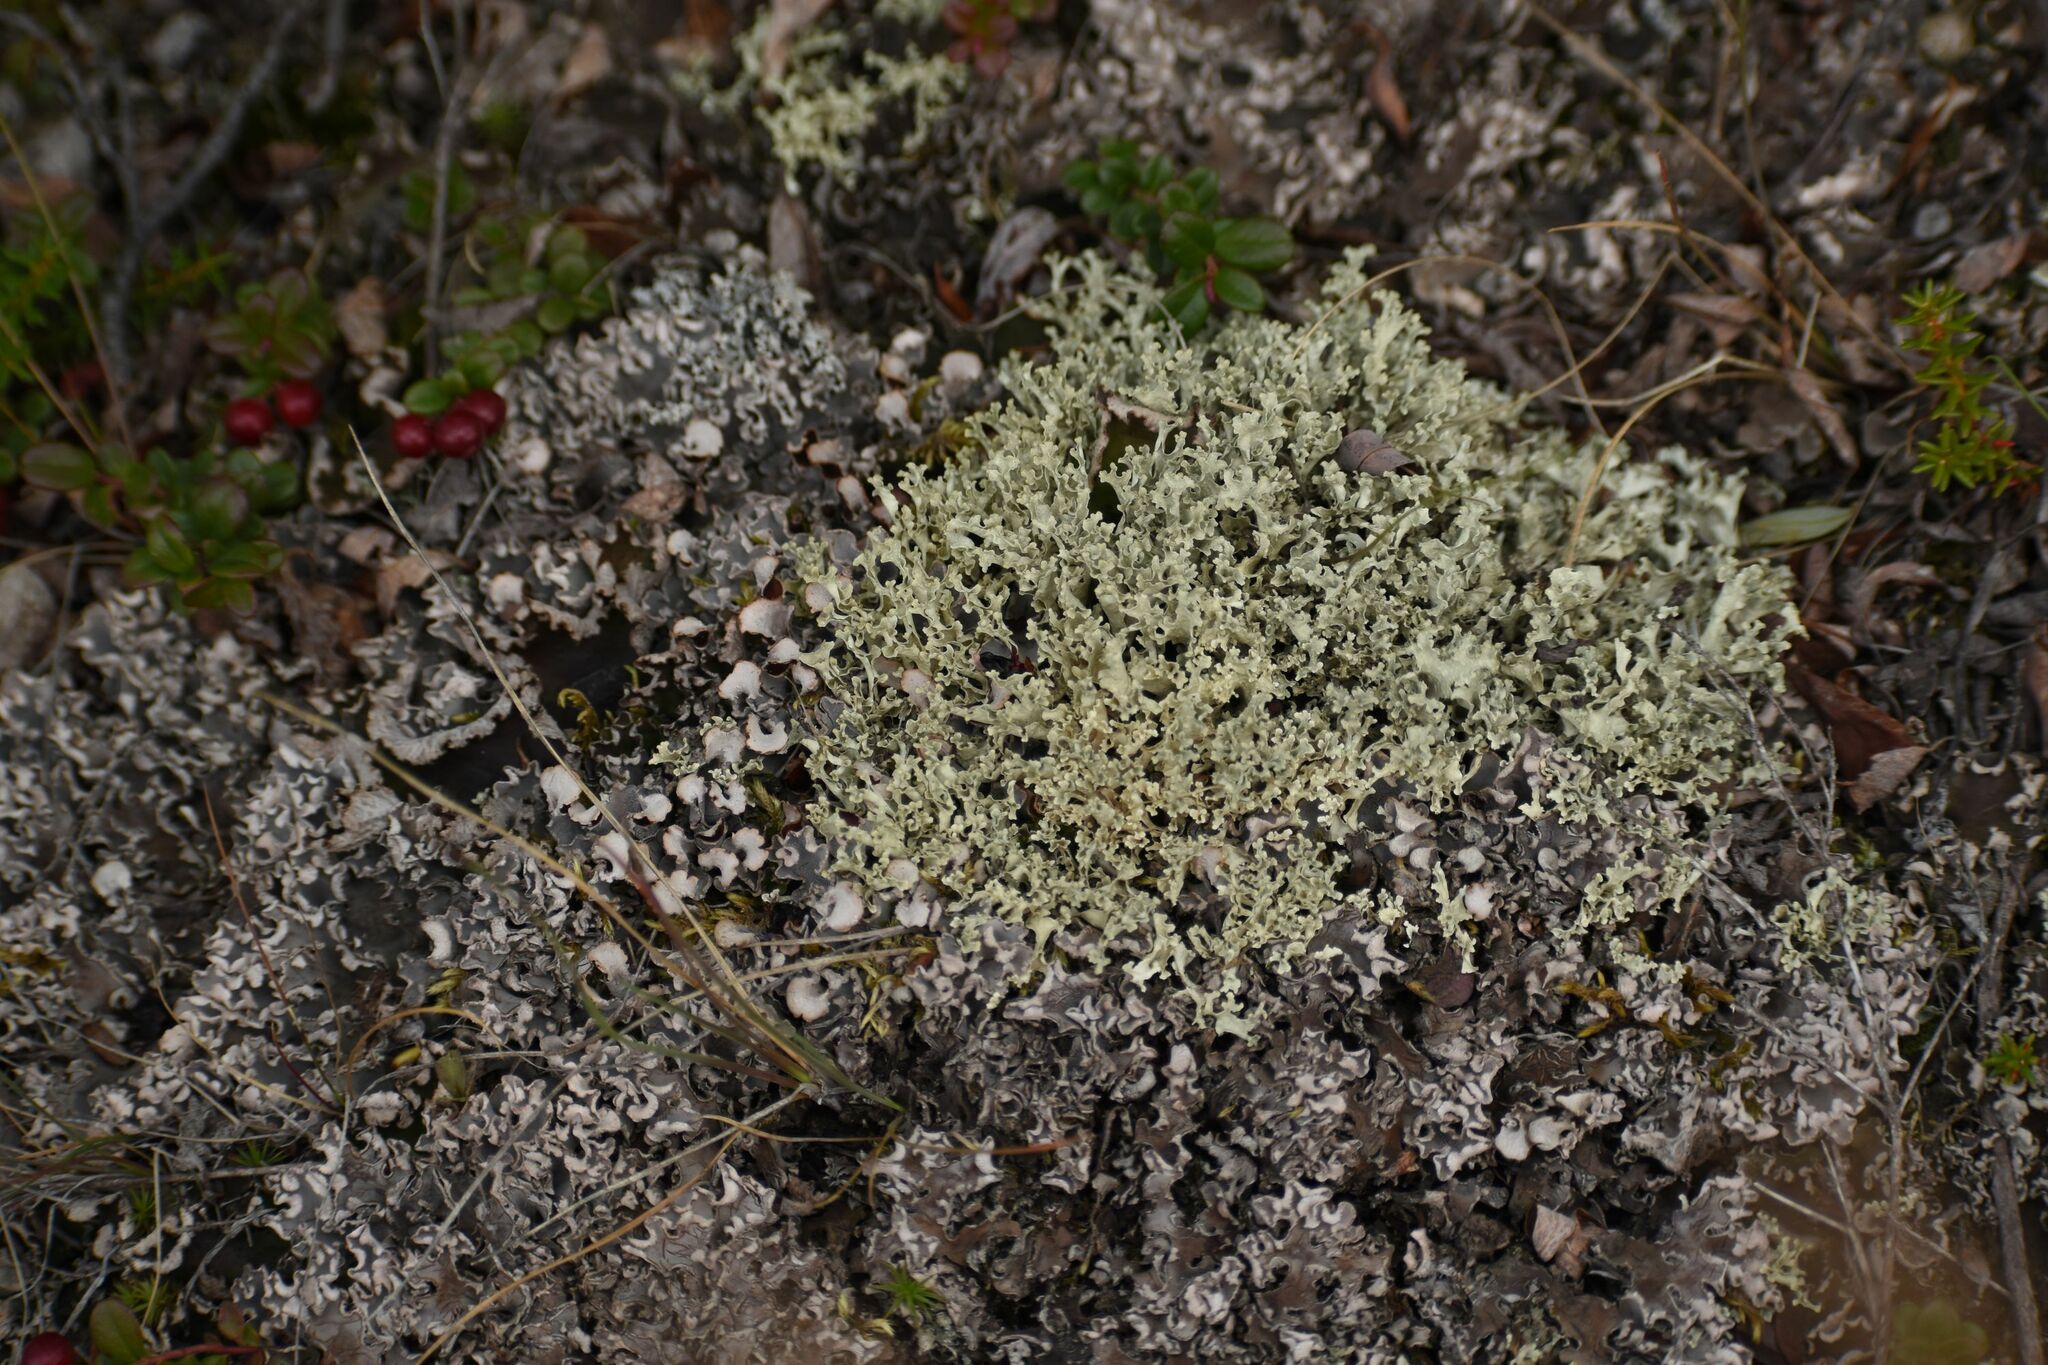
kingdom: Fungi
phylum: Ascomycota
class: Lecanoromycetes
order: Lecanorales
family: Parmeliaceae
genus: Nephromopsis
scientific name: Nephromopsis cucullata
